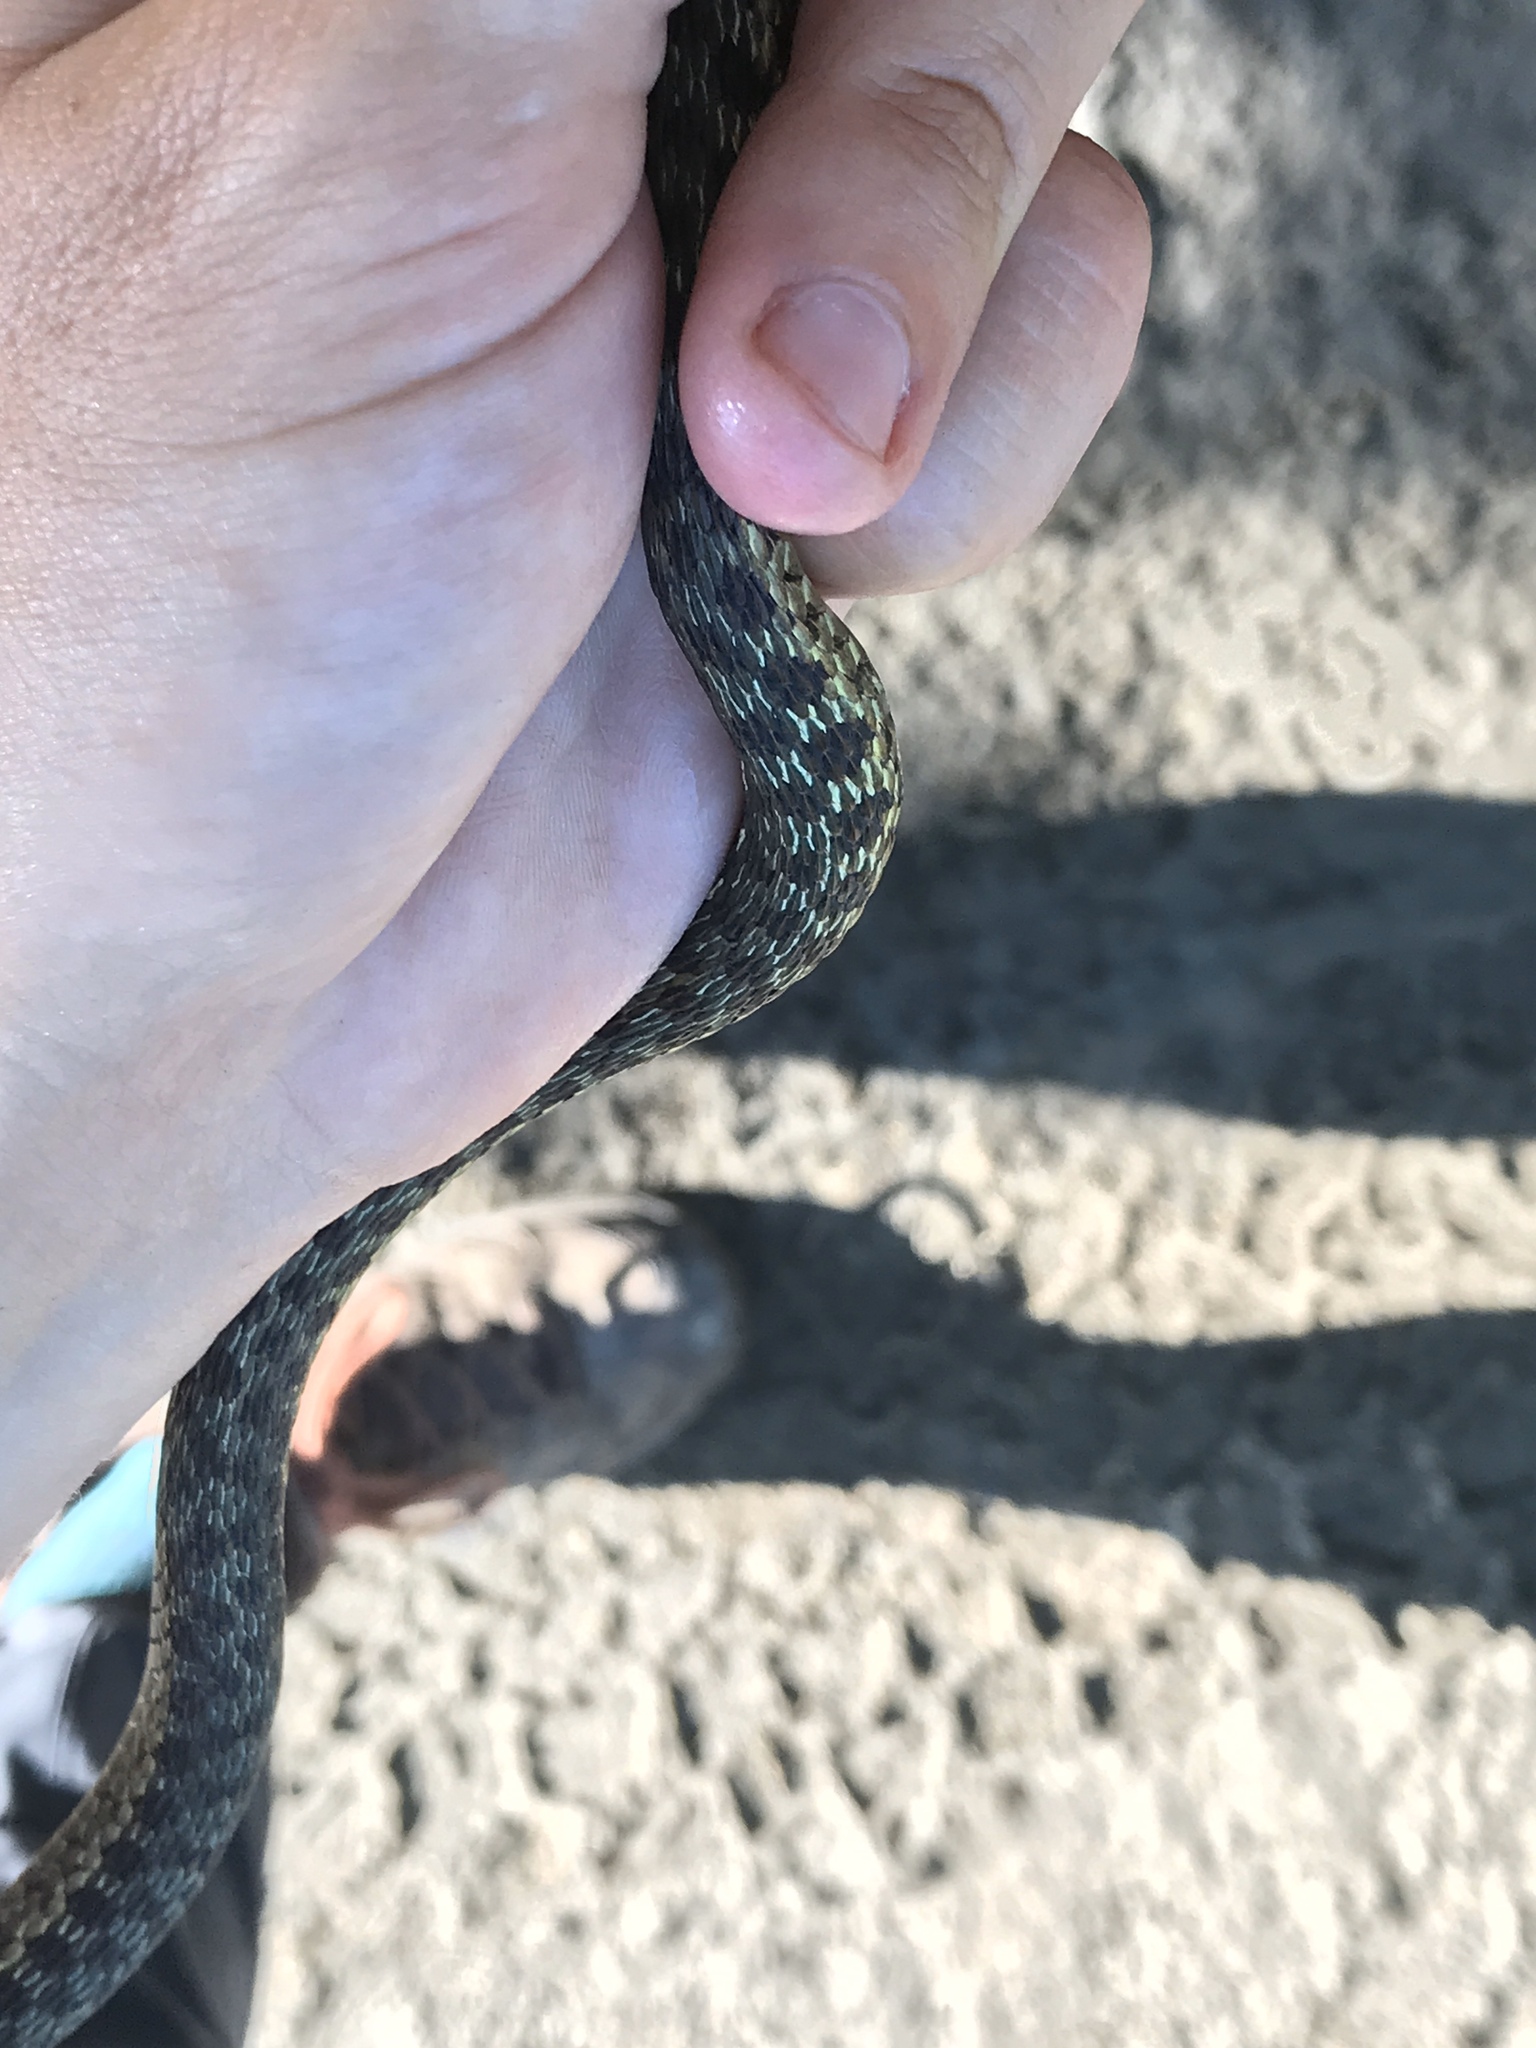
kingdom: Animalia
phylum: Chordata
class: Squamata
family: Colubridae
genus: Thamnophis
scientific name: Thamnophis sirtalis
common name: Common garter snake
